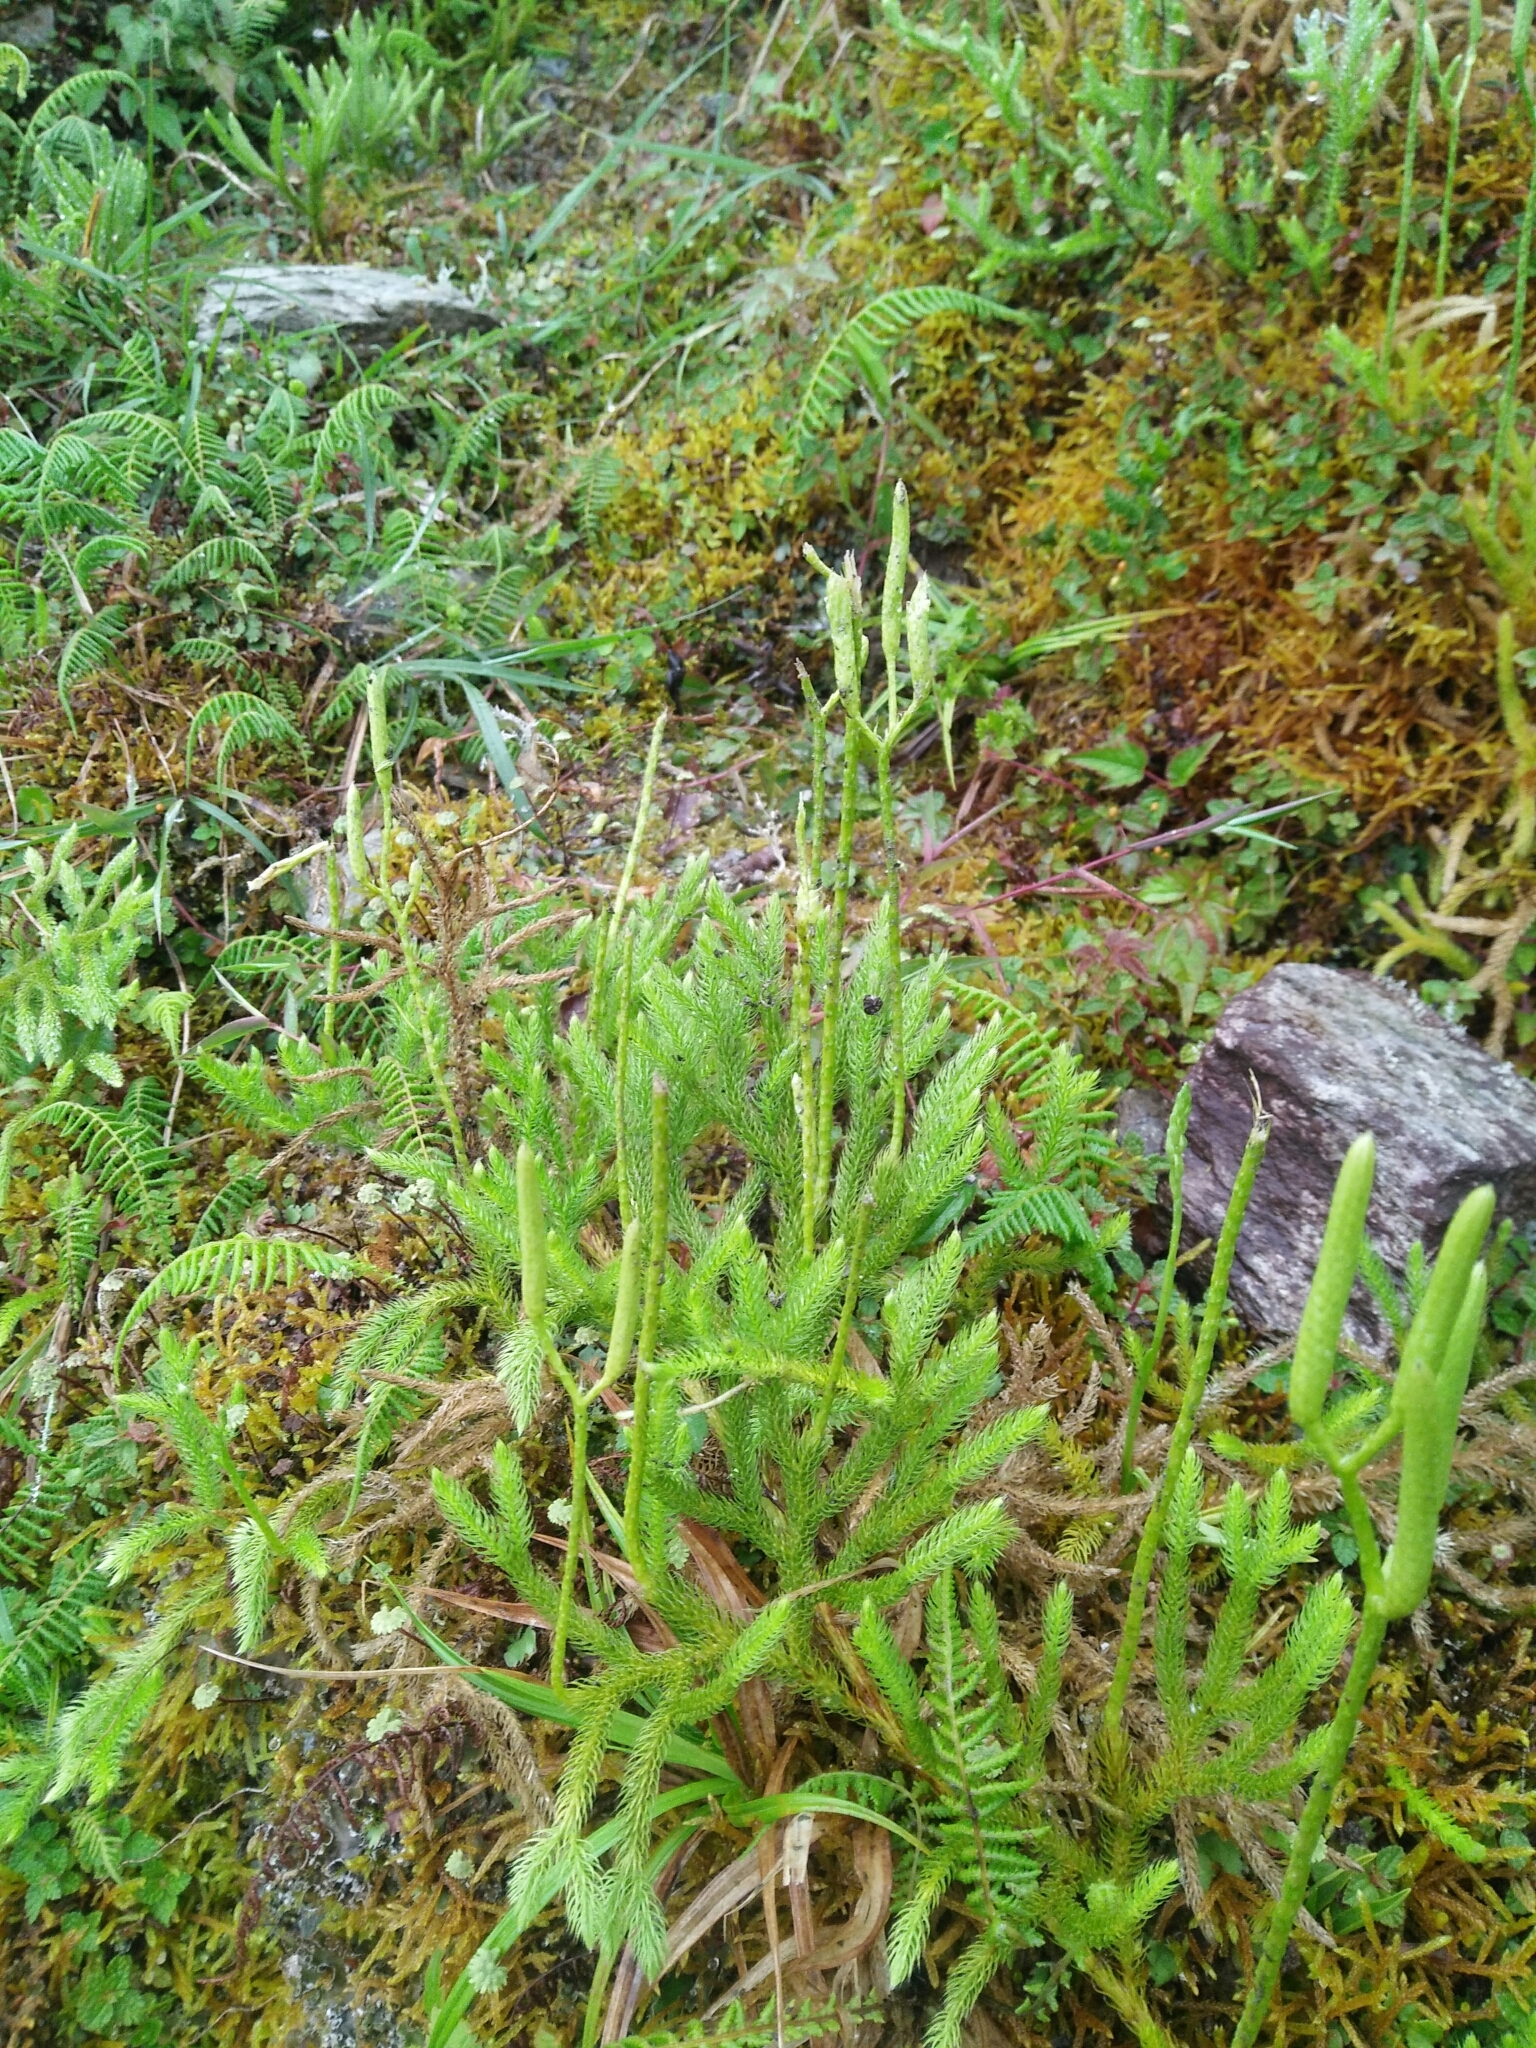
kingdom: Plantae
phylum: Tracheophyta
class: Lycopodiopsida
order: Lycopodiales
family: Lycopodiaceae
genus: Lycopodium
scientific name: Lycopodium japonicum
